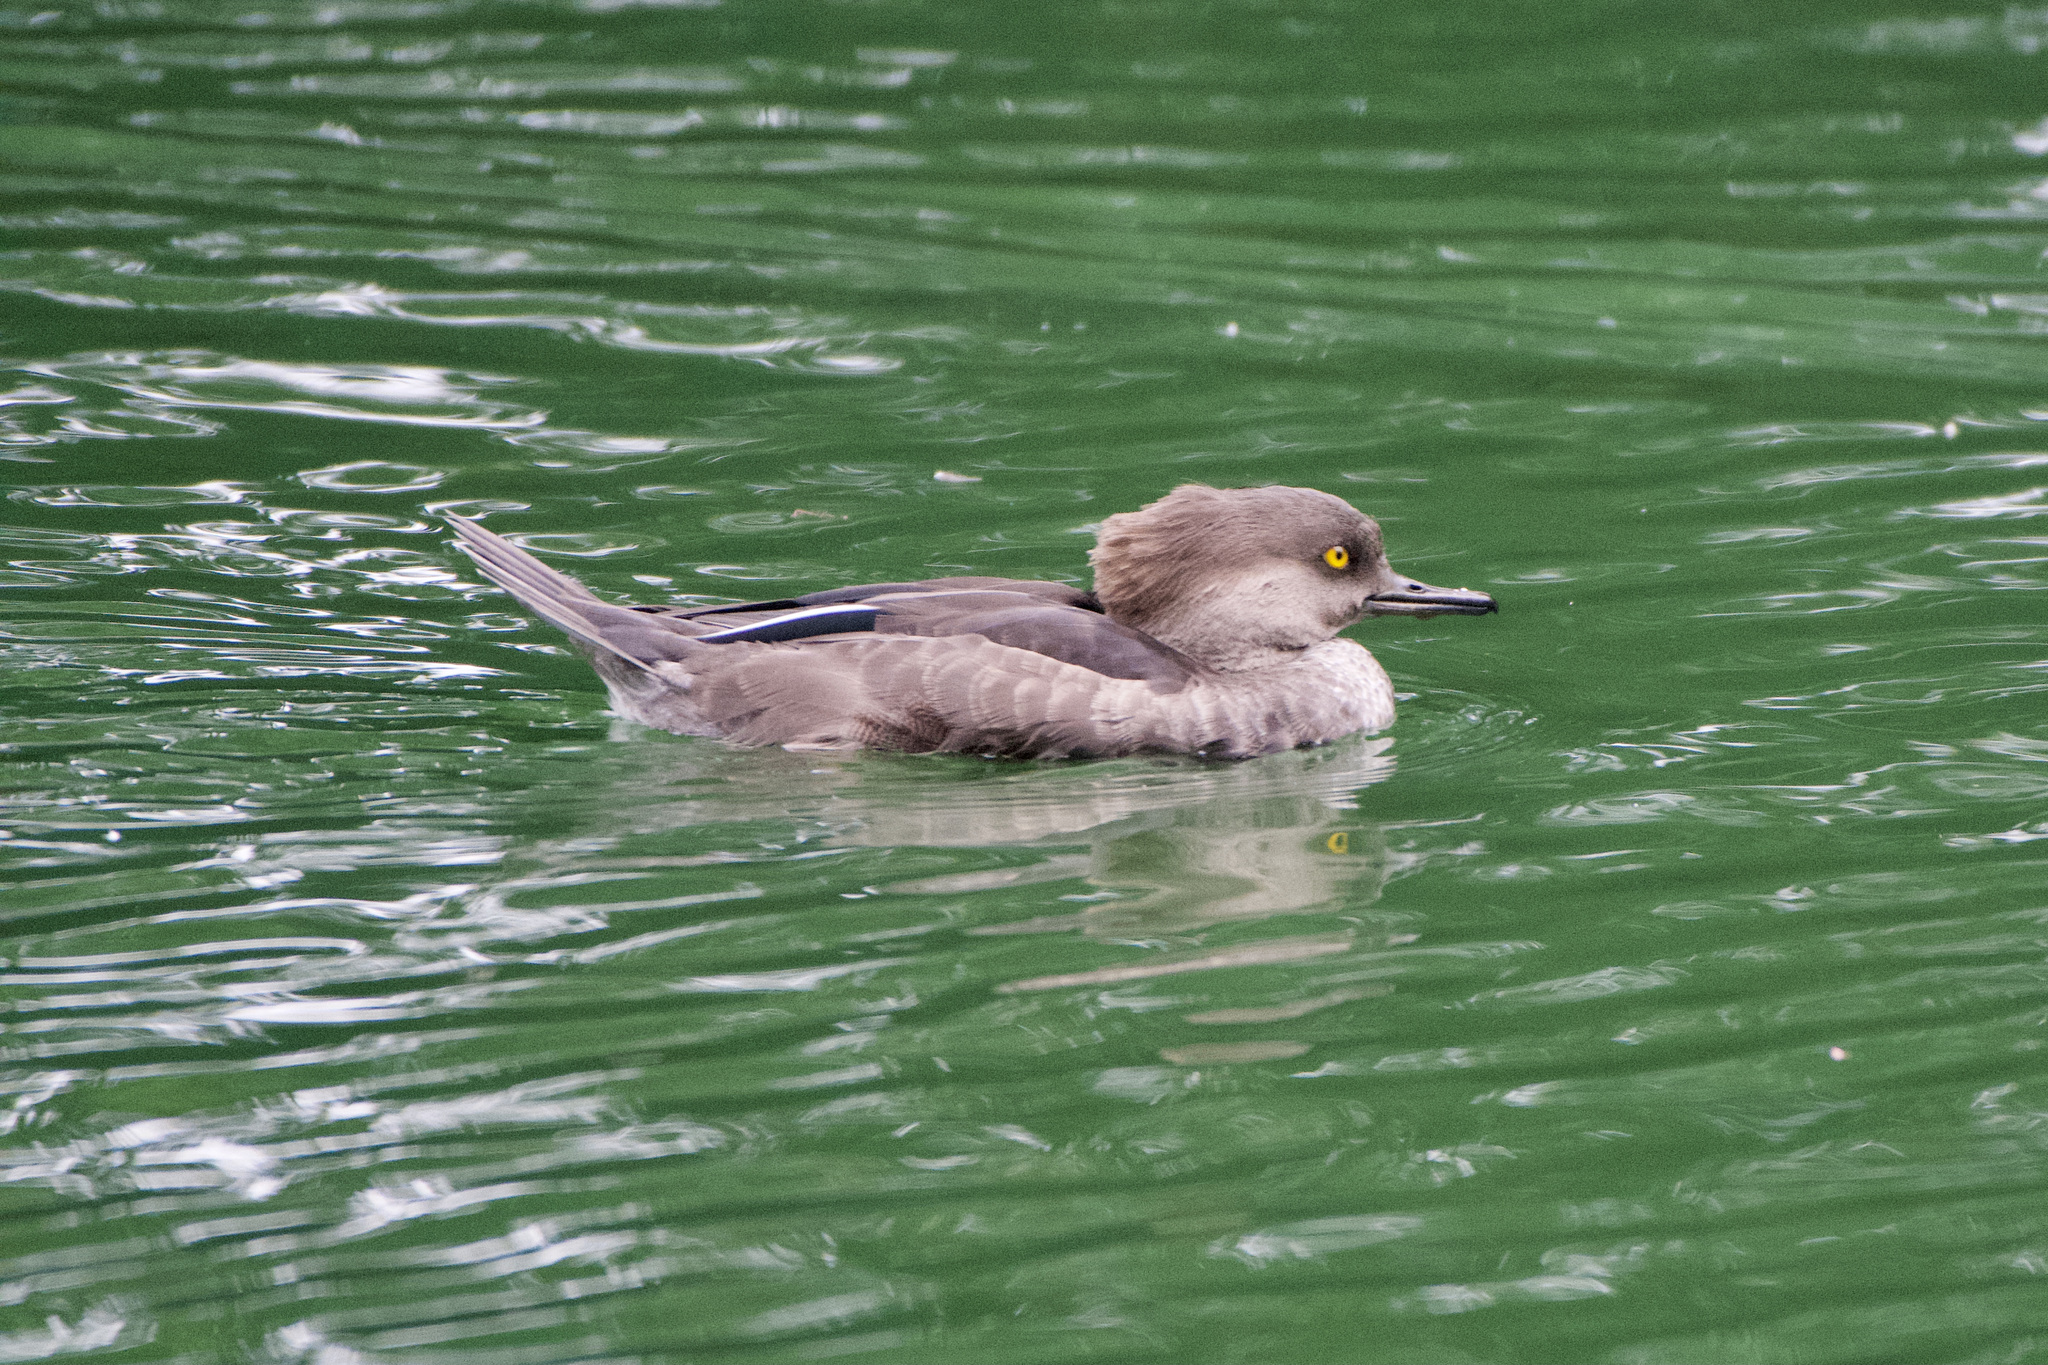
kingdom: Animalia
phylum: Chordata
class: Aves
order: Anseriformes
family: Anatidae
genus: Lophodytes
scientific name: Lophodytes cucullatus
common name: Hooded merganser
